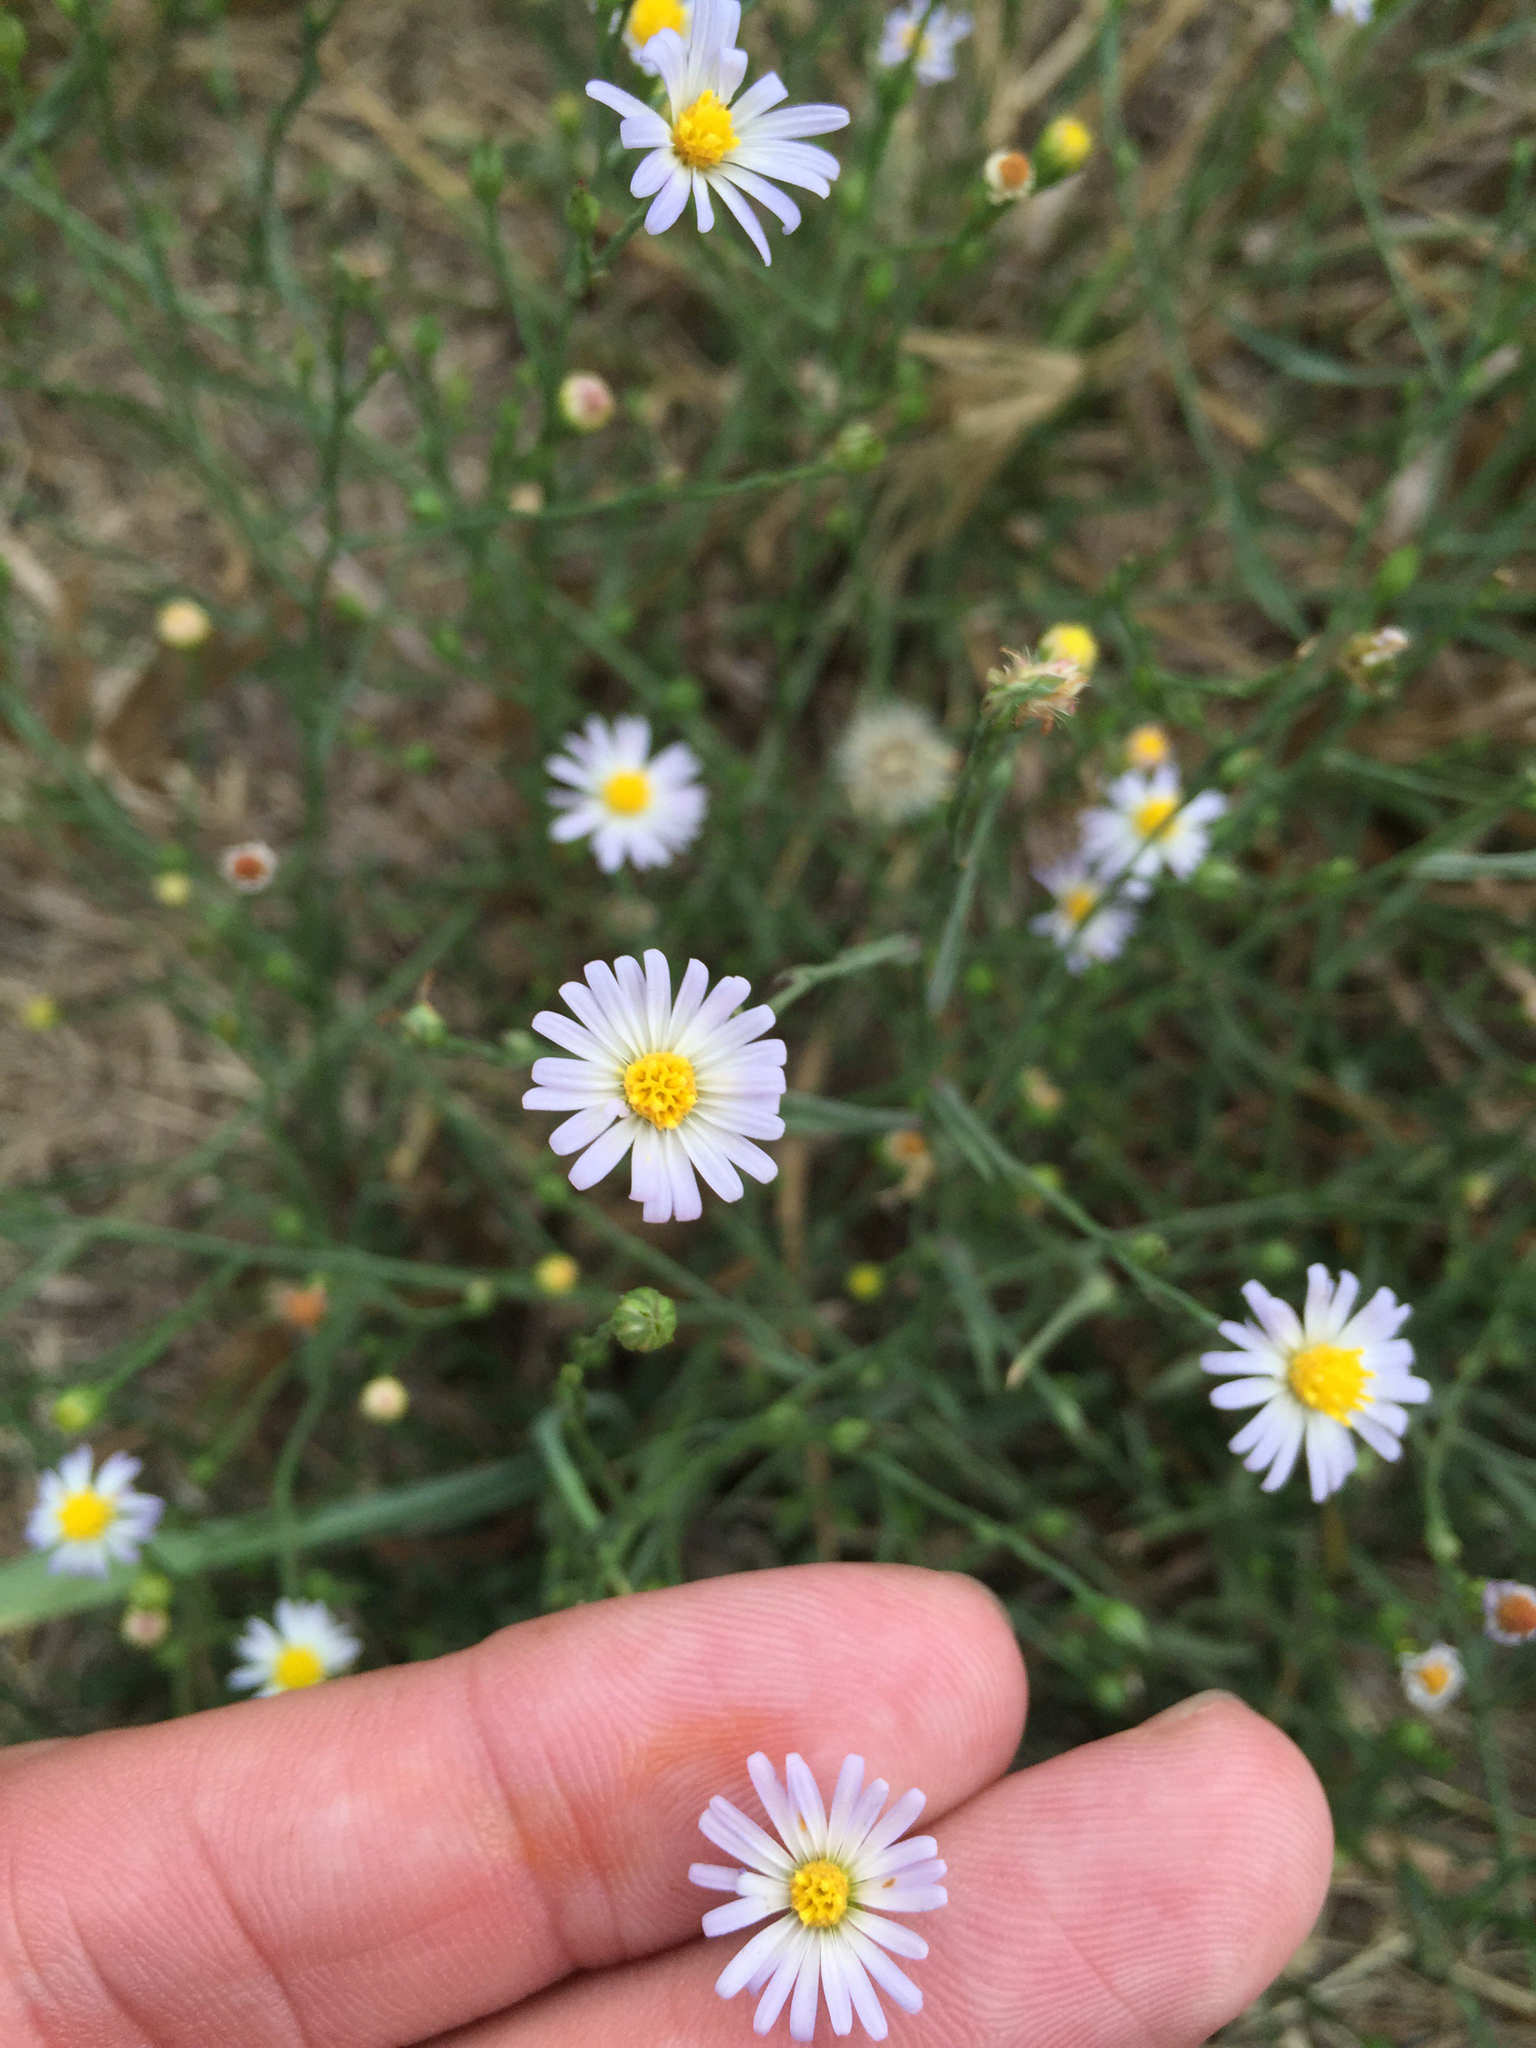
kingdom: Plantae
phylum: Tracheophyta
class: Magnoliopsida
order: Asterales
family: Asteraceae
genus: Symphyotrichum
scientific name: Symphyotrichum divaricatum
